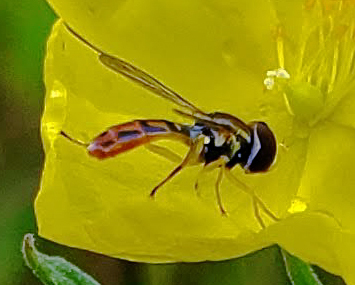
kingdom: Animalia
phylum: Arthropoda
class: Insecta
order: Diptera
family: Syrphidae
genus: Toxomerus
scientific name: Toxomerus marginatus
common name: Syrphid fly
